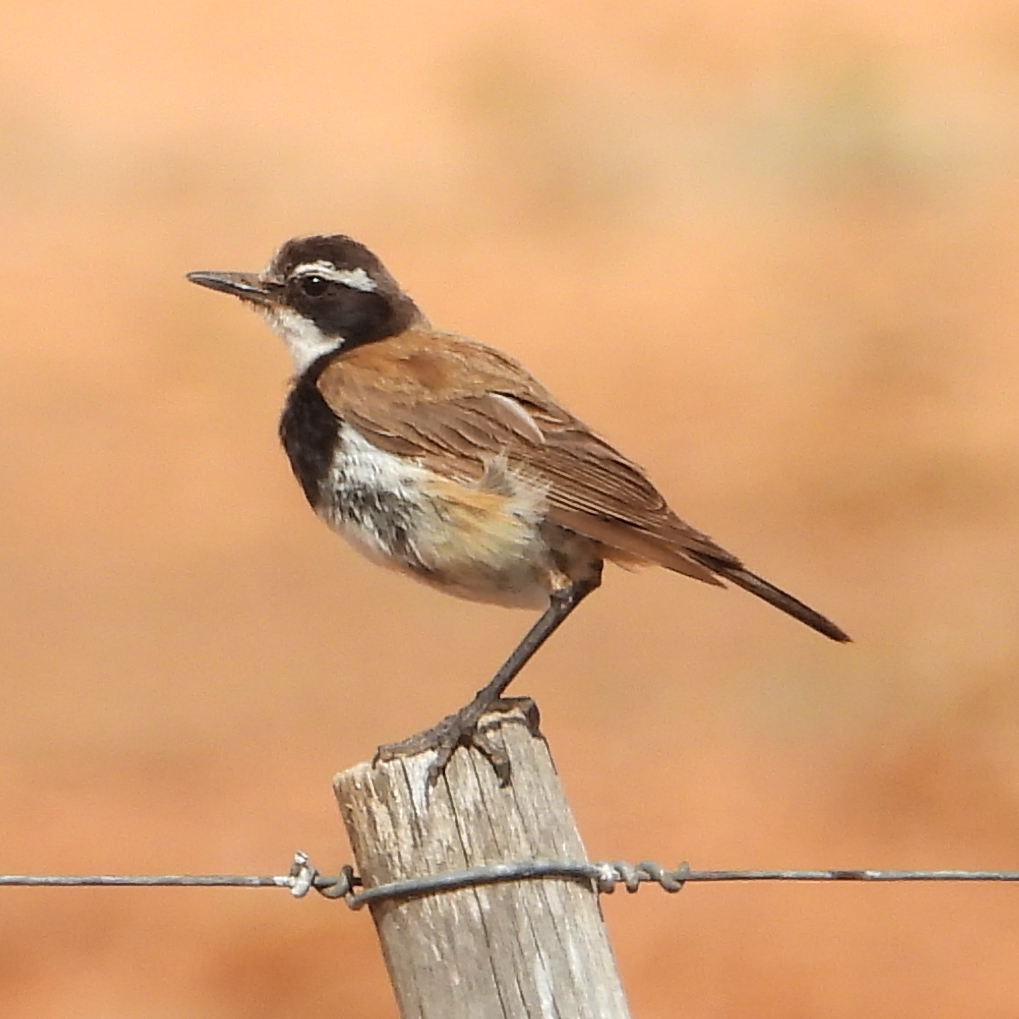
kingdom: Animalia
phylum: Chordata
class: Aves
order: Passeriformes
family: Muscicapidae
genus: Oenanthe
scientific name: Oenanthe pileata
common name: Capped wheatear
